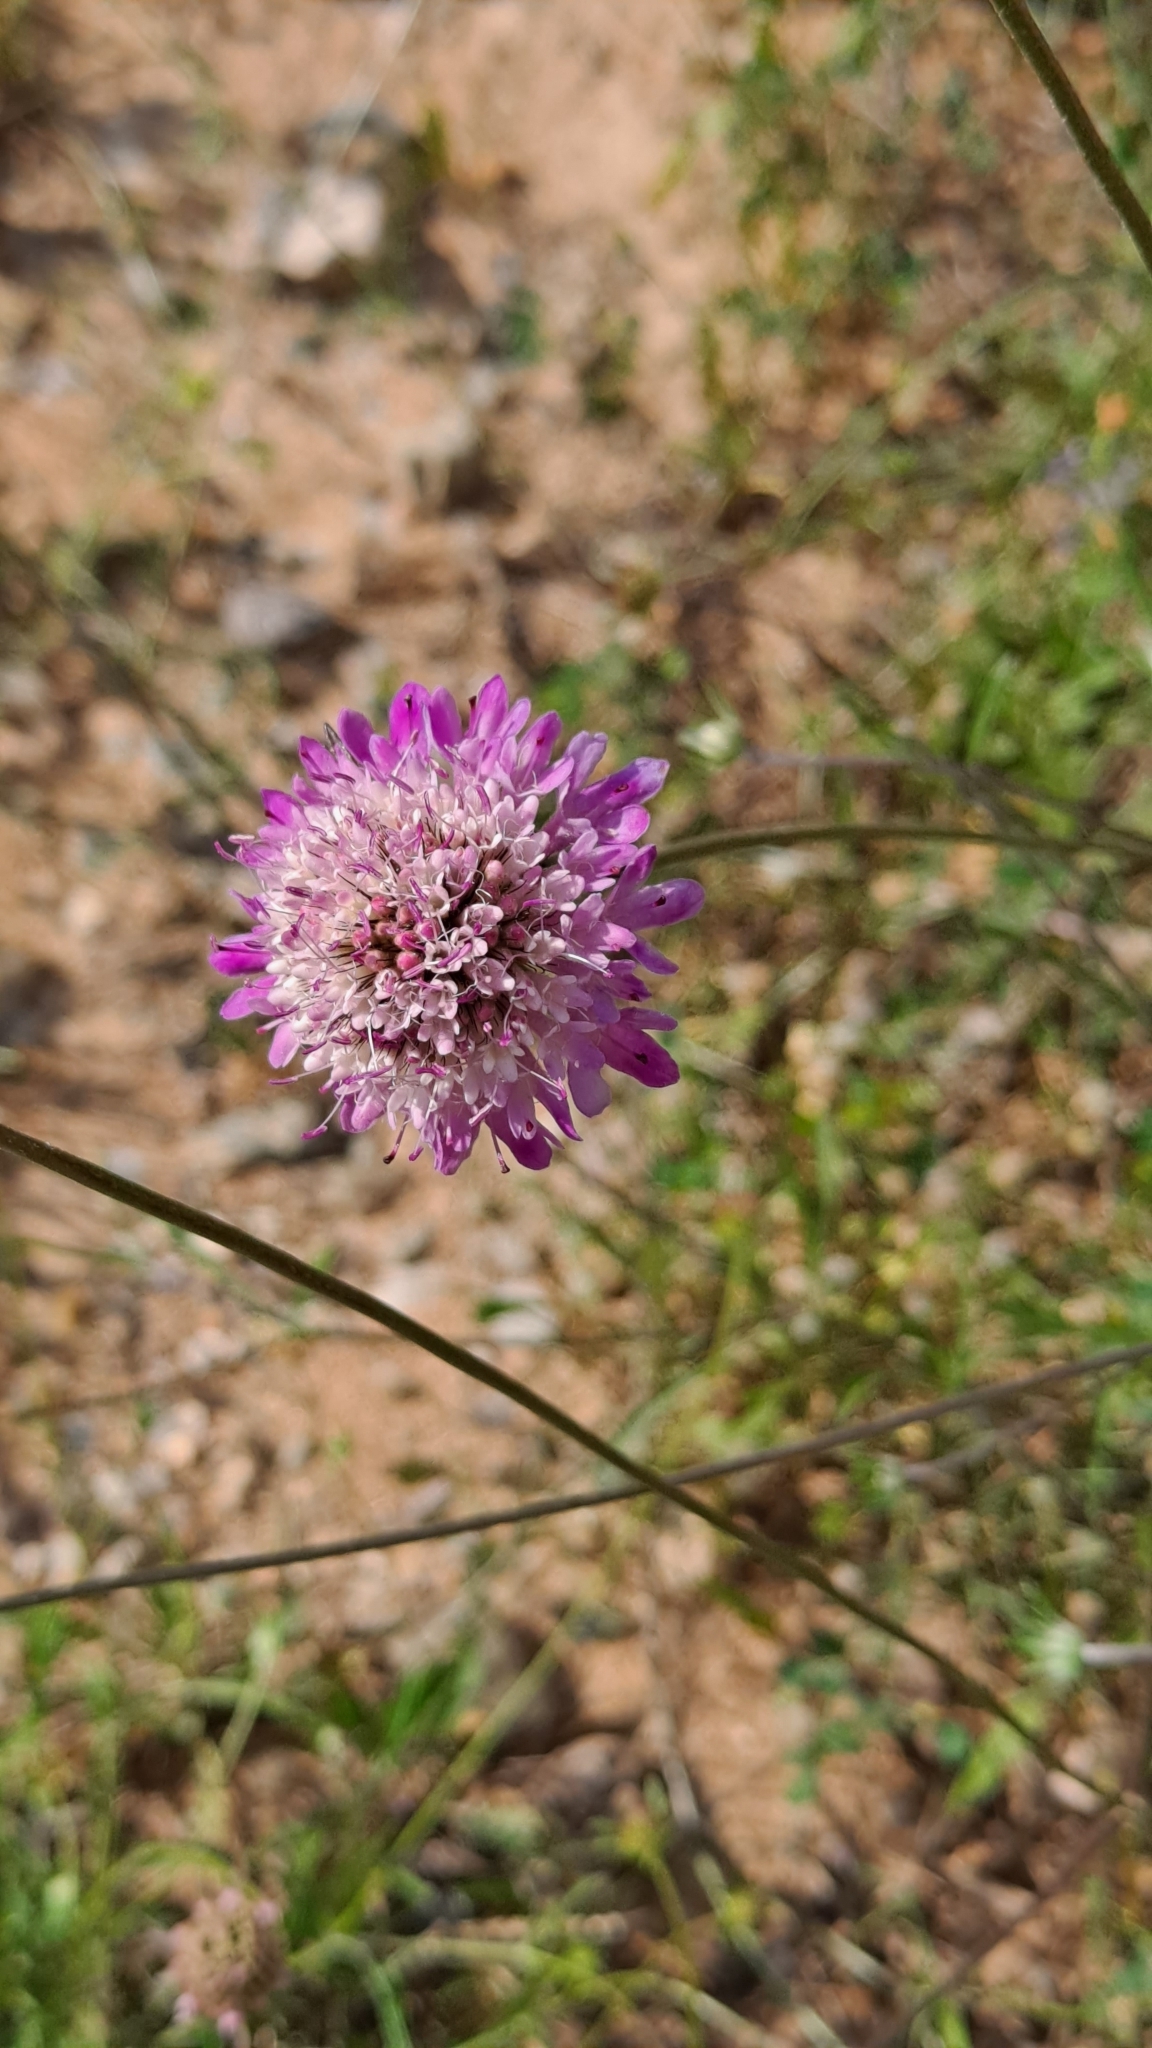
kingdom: Plantae
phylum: Tracheophyta
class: Magnoliopsida
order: Dipsacales
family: Caprifoliaceae
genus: Sixalix
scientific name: Sixalix atropurpurea
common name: Sweet scabious
